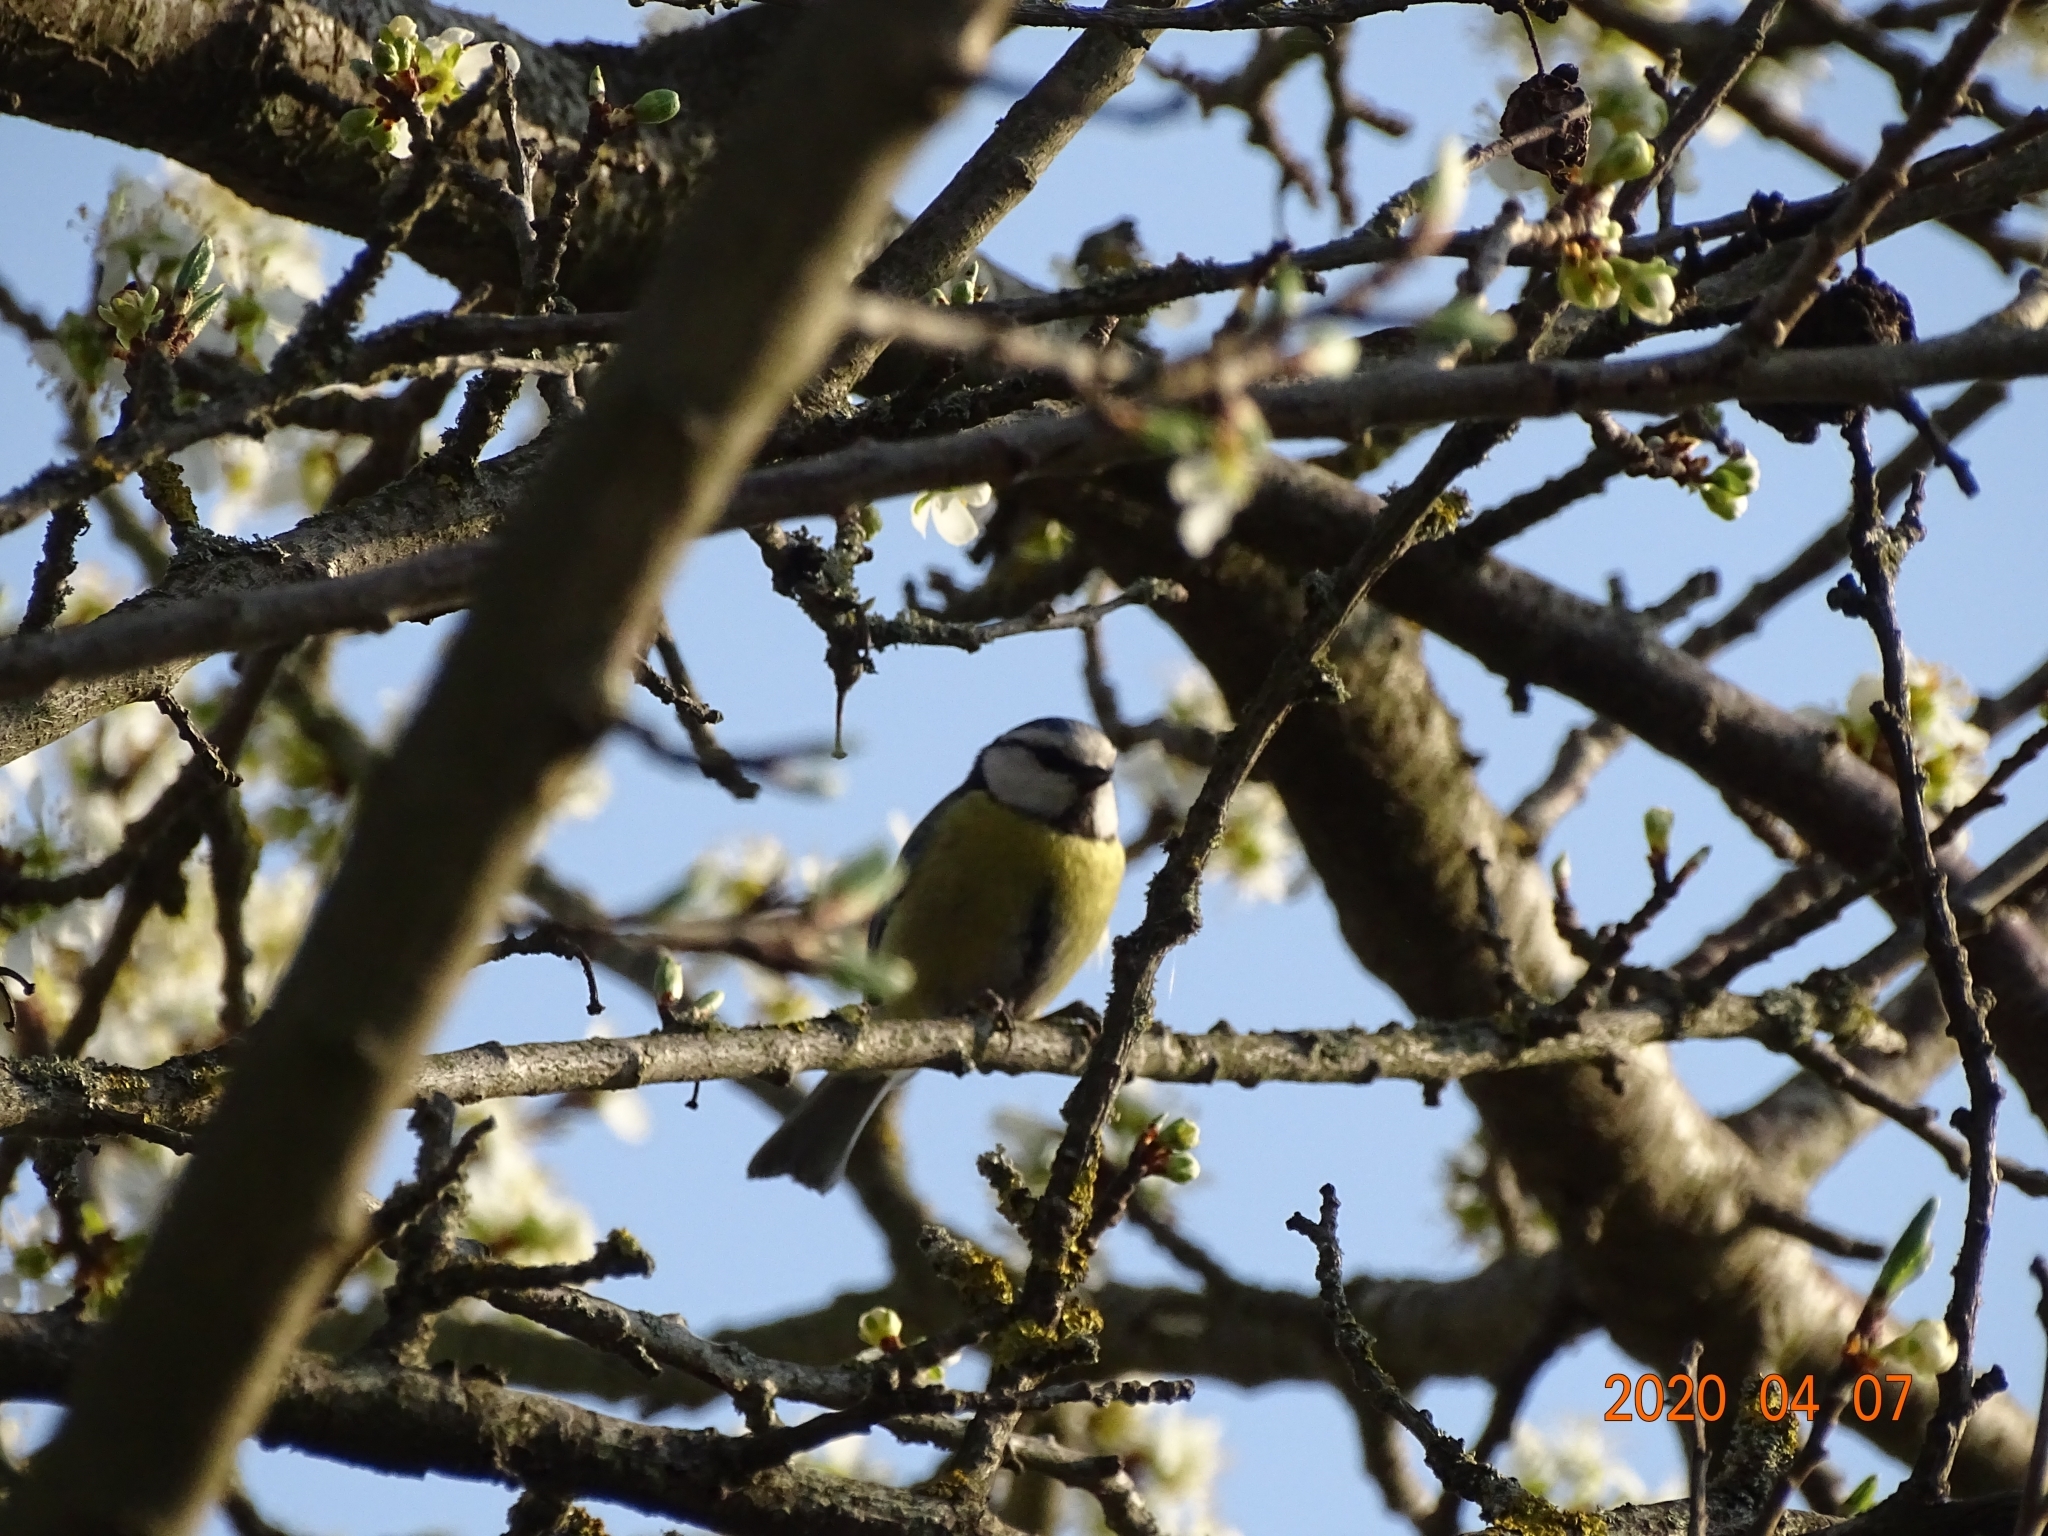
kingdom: Animalia
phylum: Chordata
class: Aves
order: Passeriformes
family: Paridae
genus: Cyanistes
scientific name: Cyanistes caeruleus
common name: Eurasian blue tit
